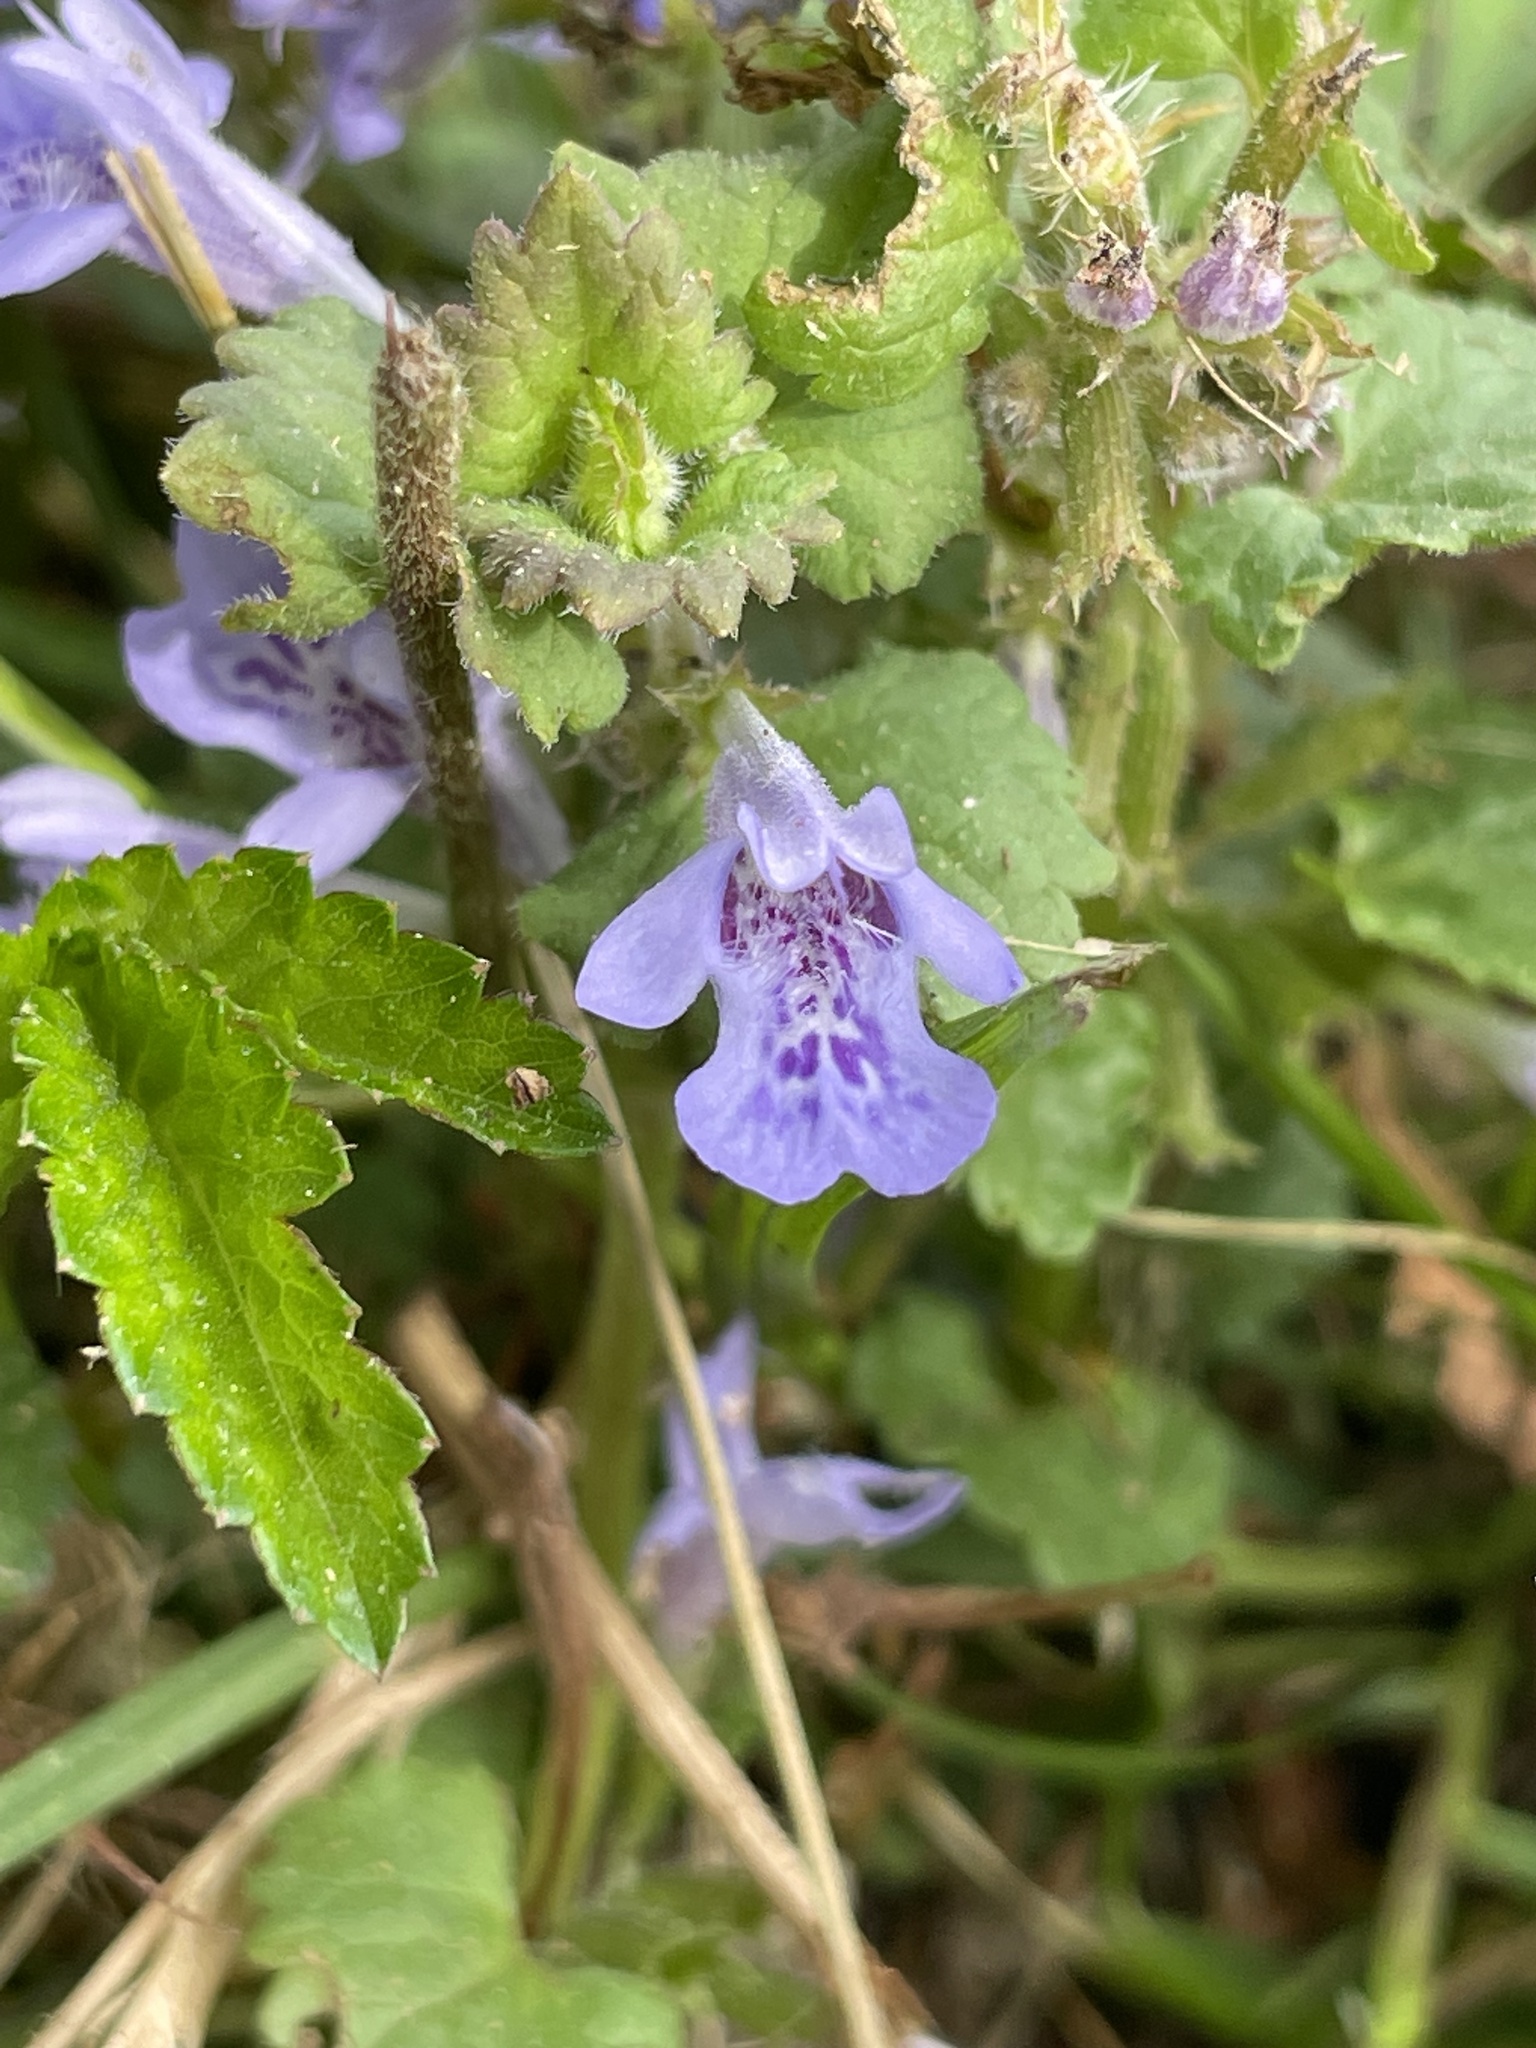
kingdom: Plantae
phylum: Tracheophyta
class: Magnoliopsida
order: Lamiales
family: Lamiaceae
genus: Glechoma
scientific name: Glechoma hederacea
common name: Ground ivy
